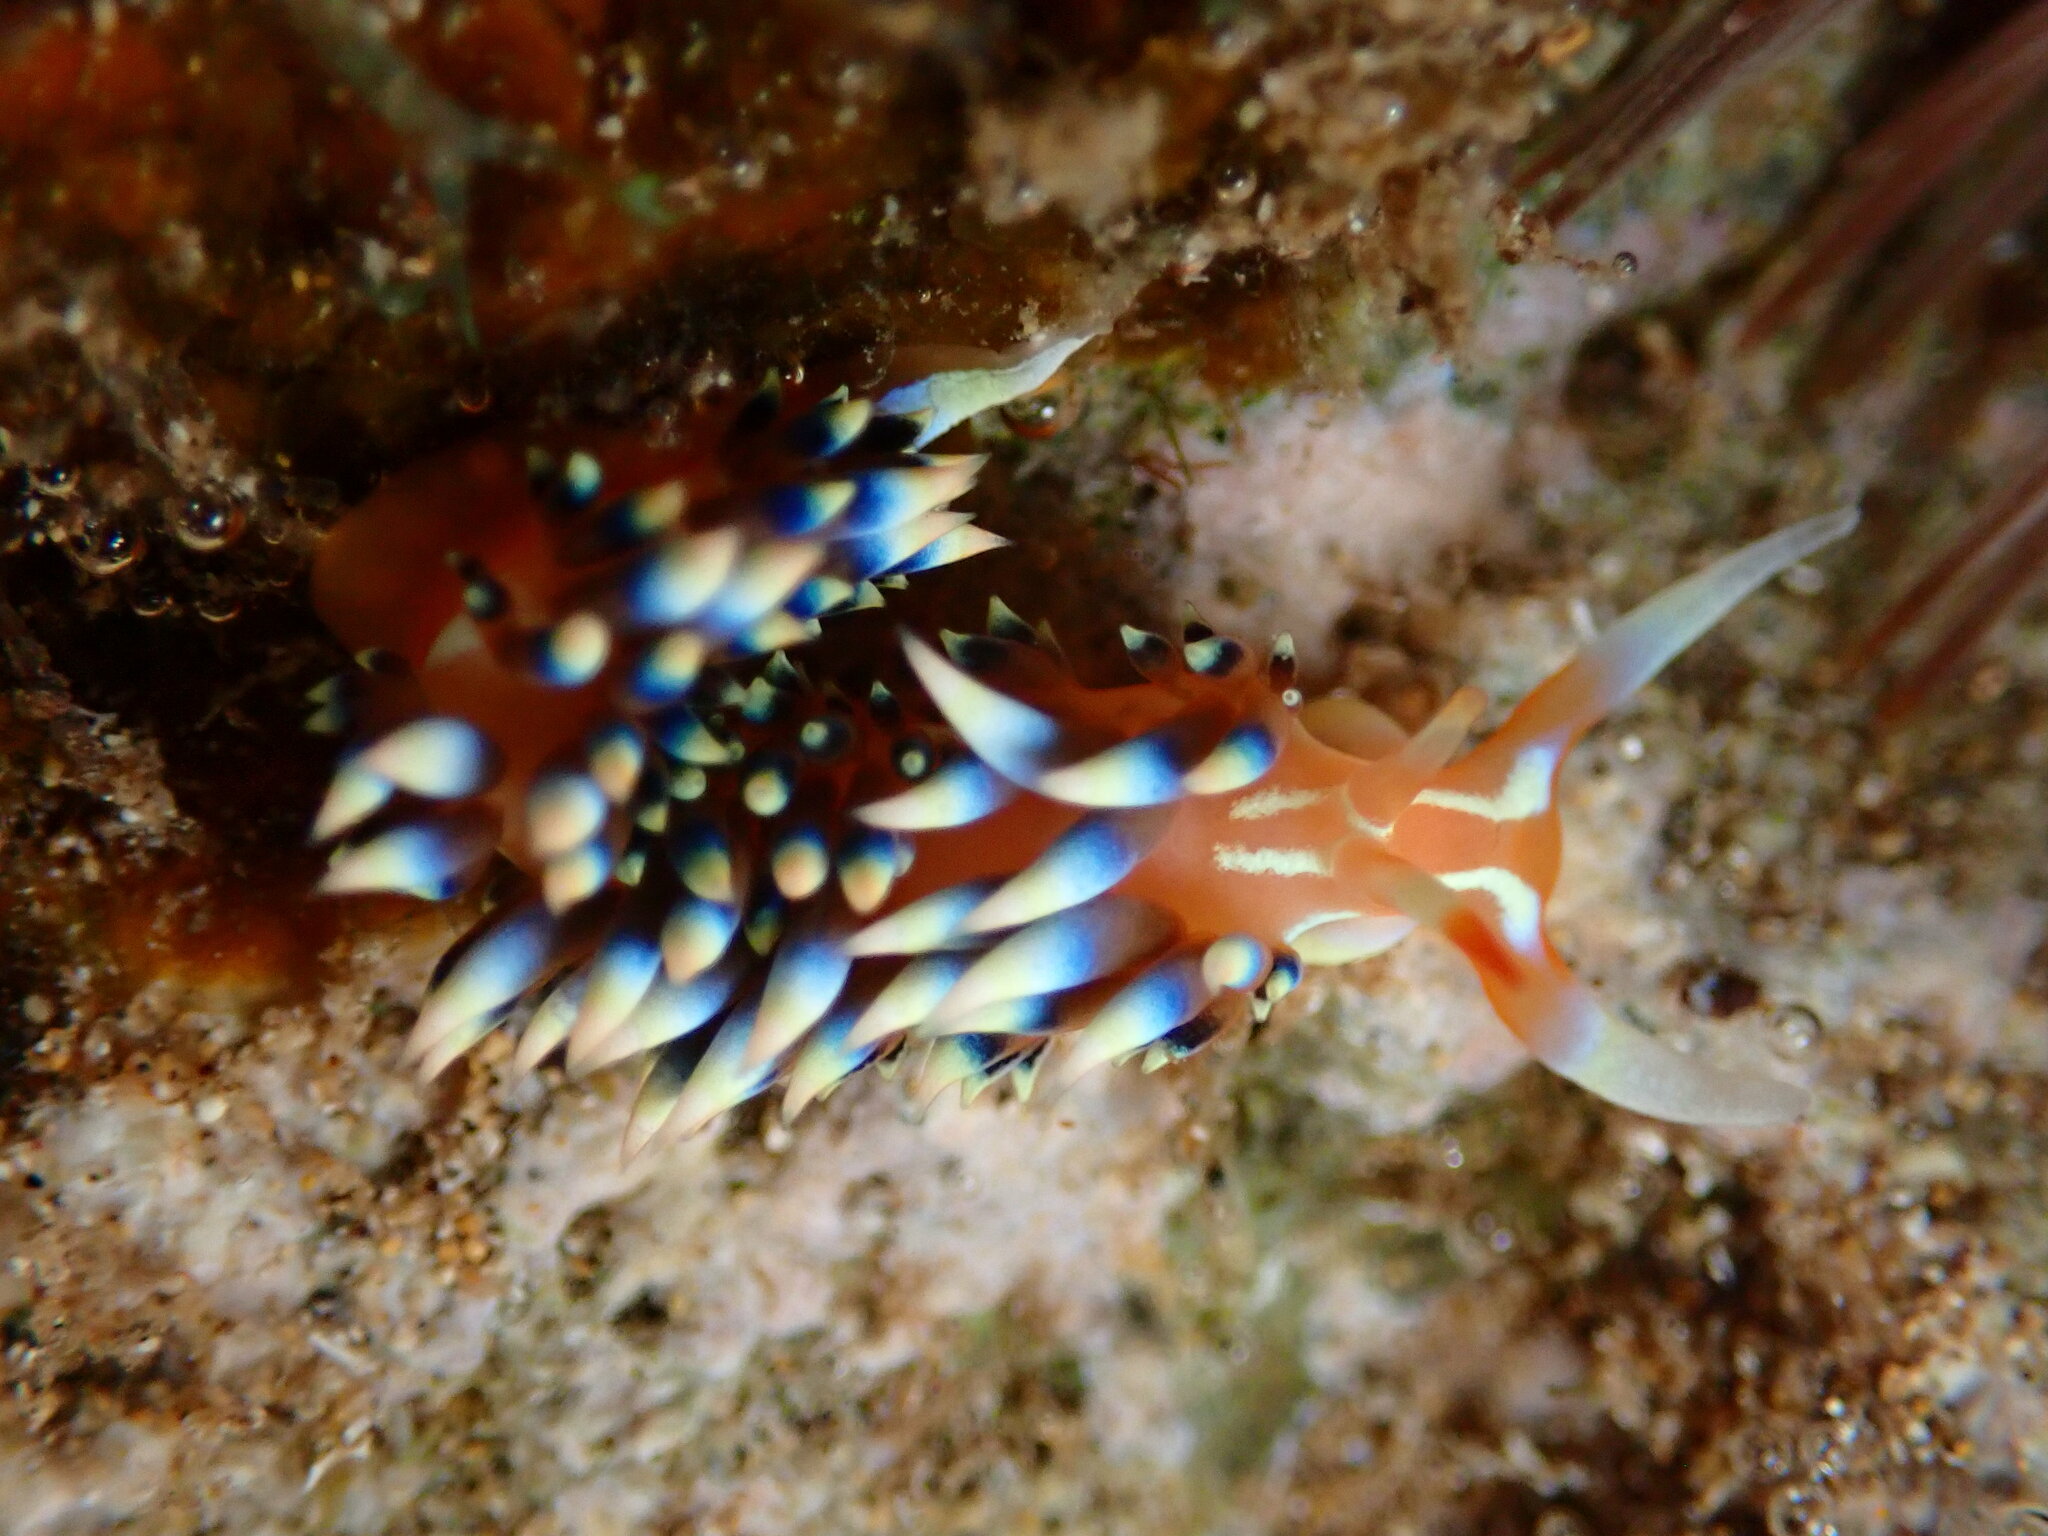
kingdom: Animalia
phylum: Mollusca
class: Gastropoda
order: Nudibranchia
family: Facelinidae
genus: Caloria
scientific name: Caloria indica
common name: Sea slug
